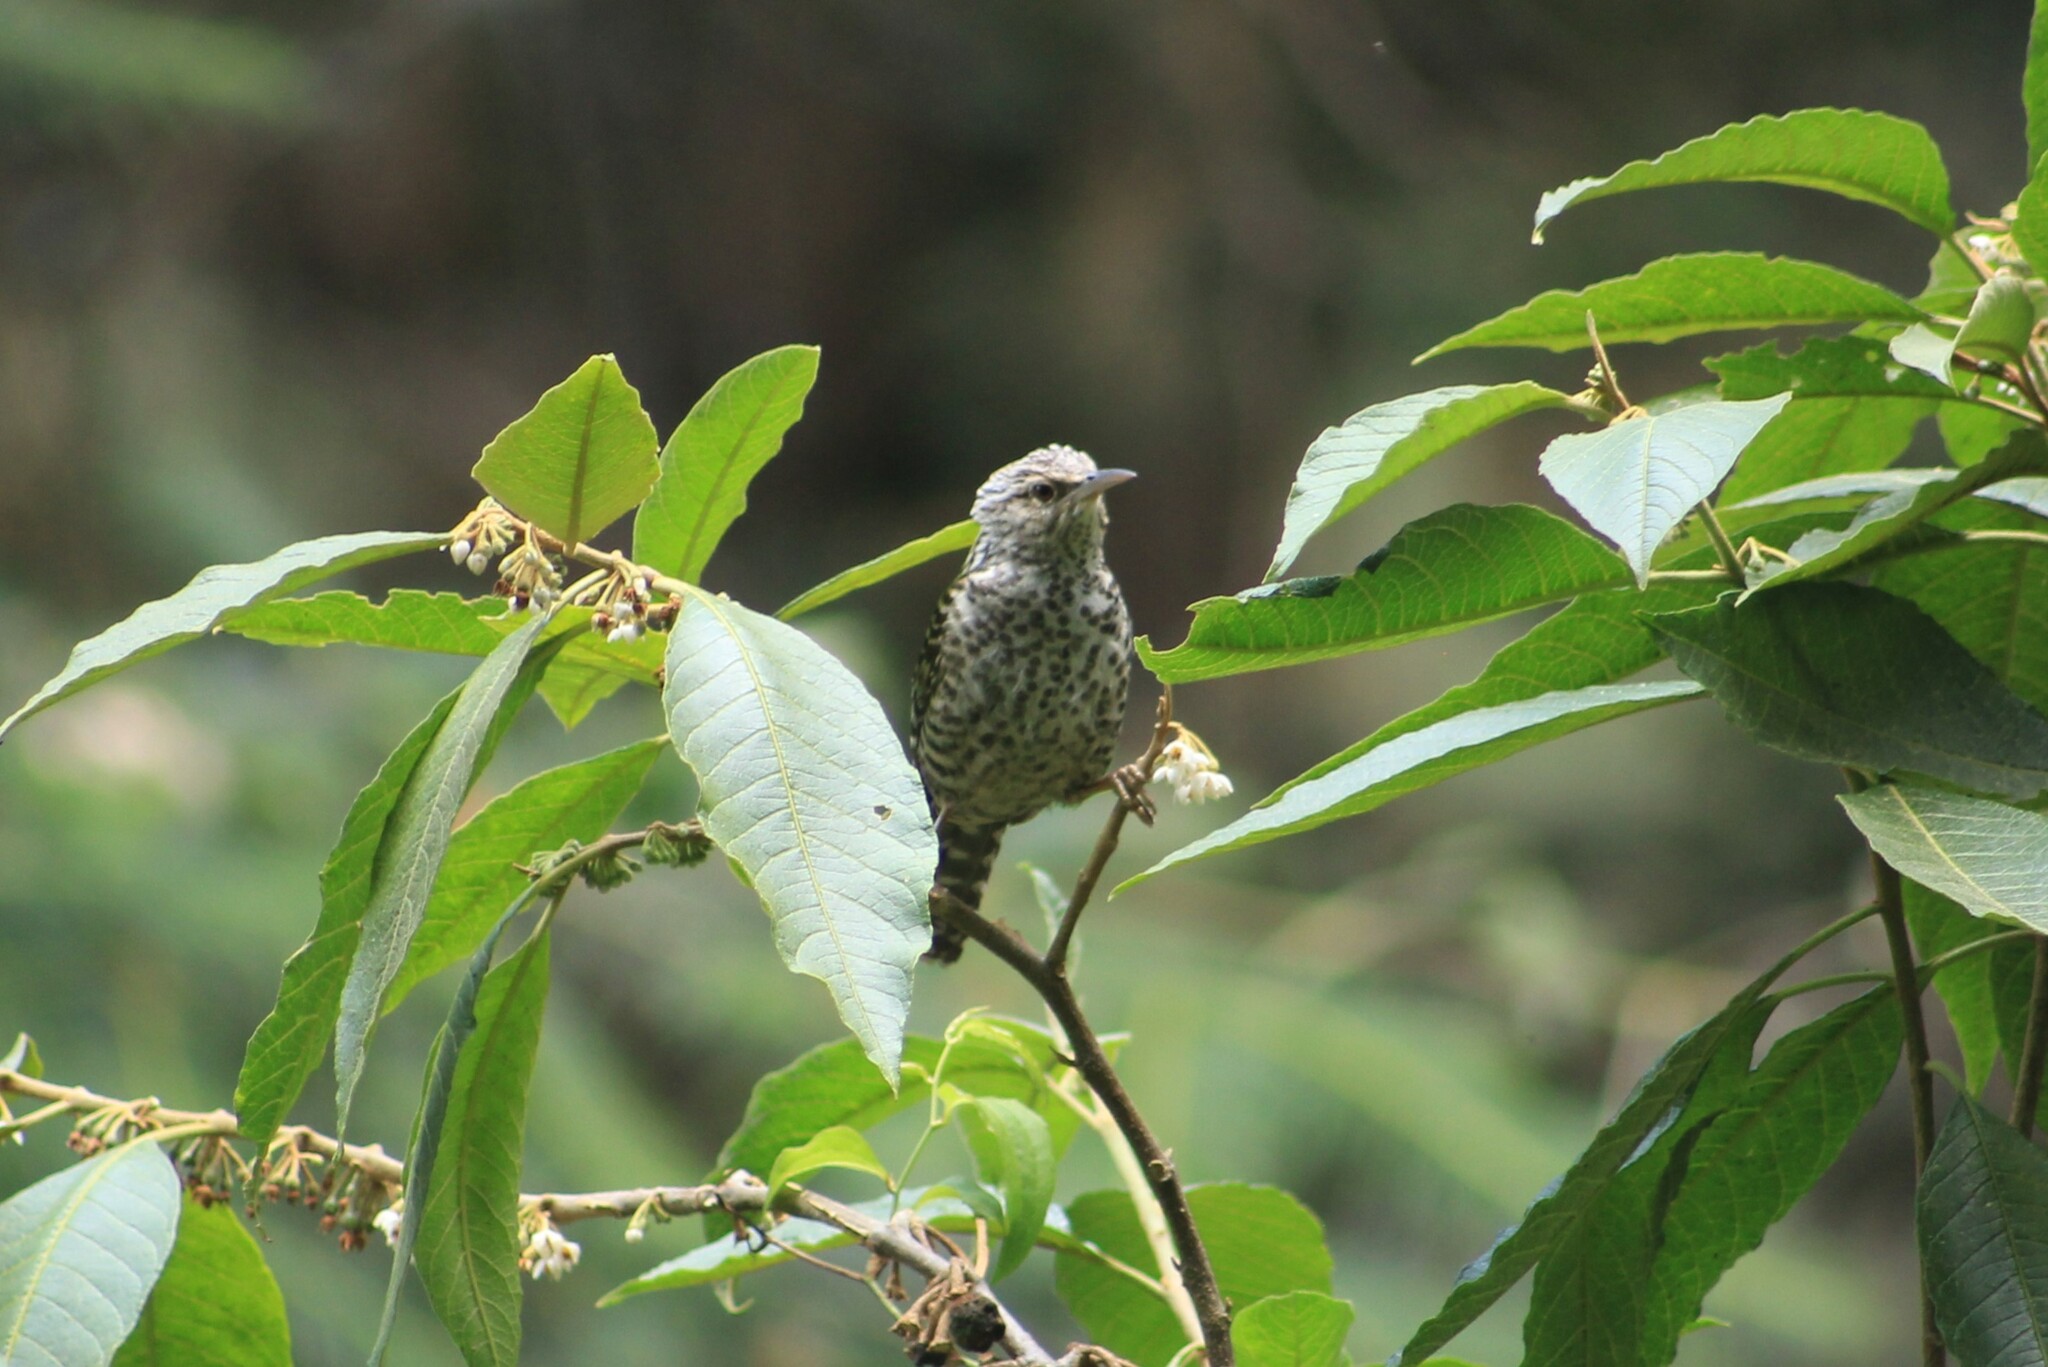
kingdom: Animalia
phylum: Chordata
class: Aves
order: Passeriformes
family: Troglodytidae
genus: Campylorhynchus
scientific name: Campylorhynchus megalopterus
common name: Gray-barred wren
